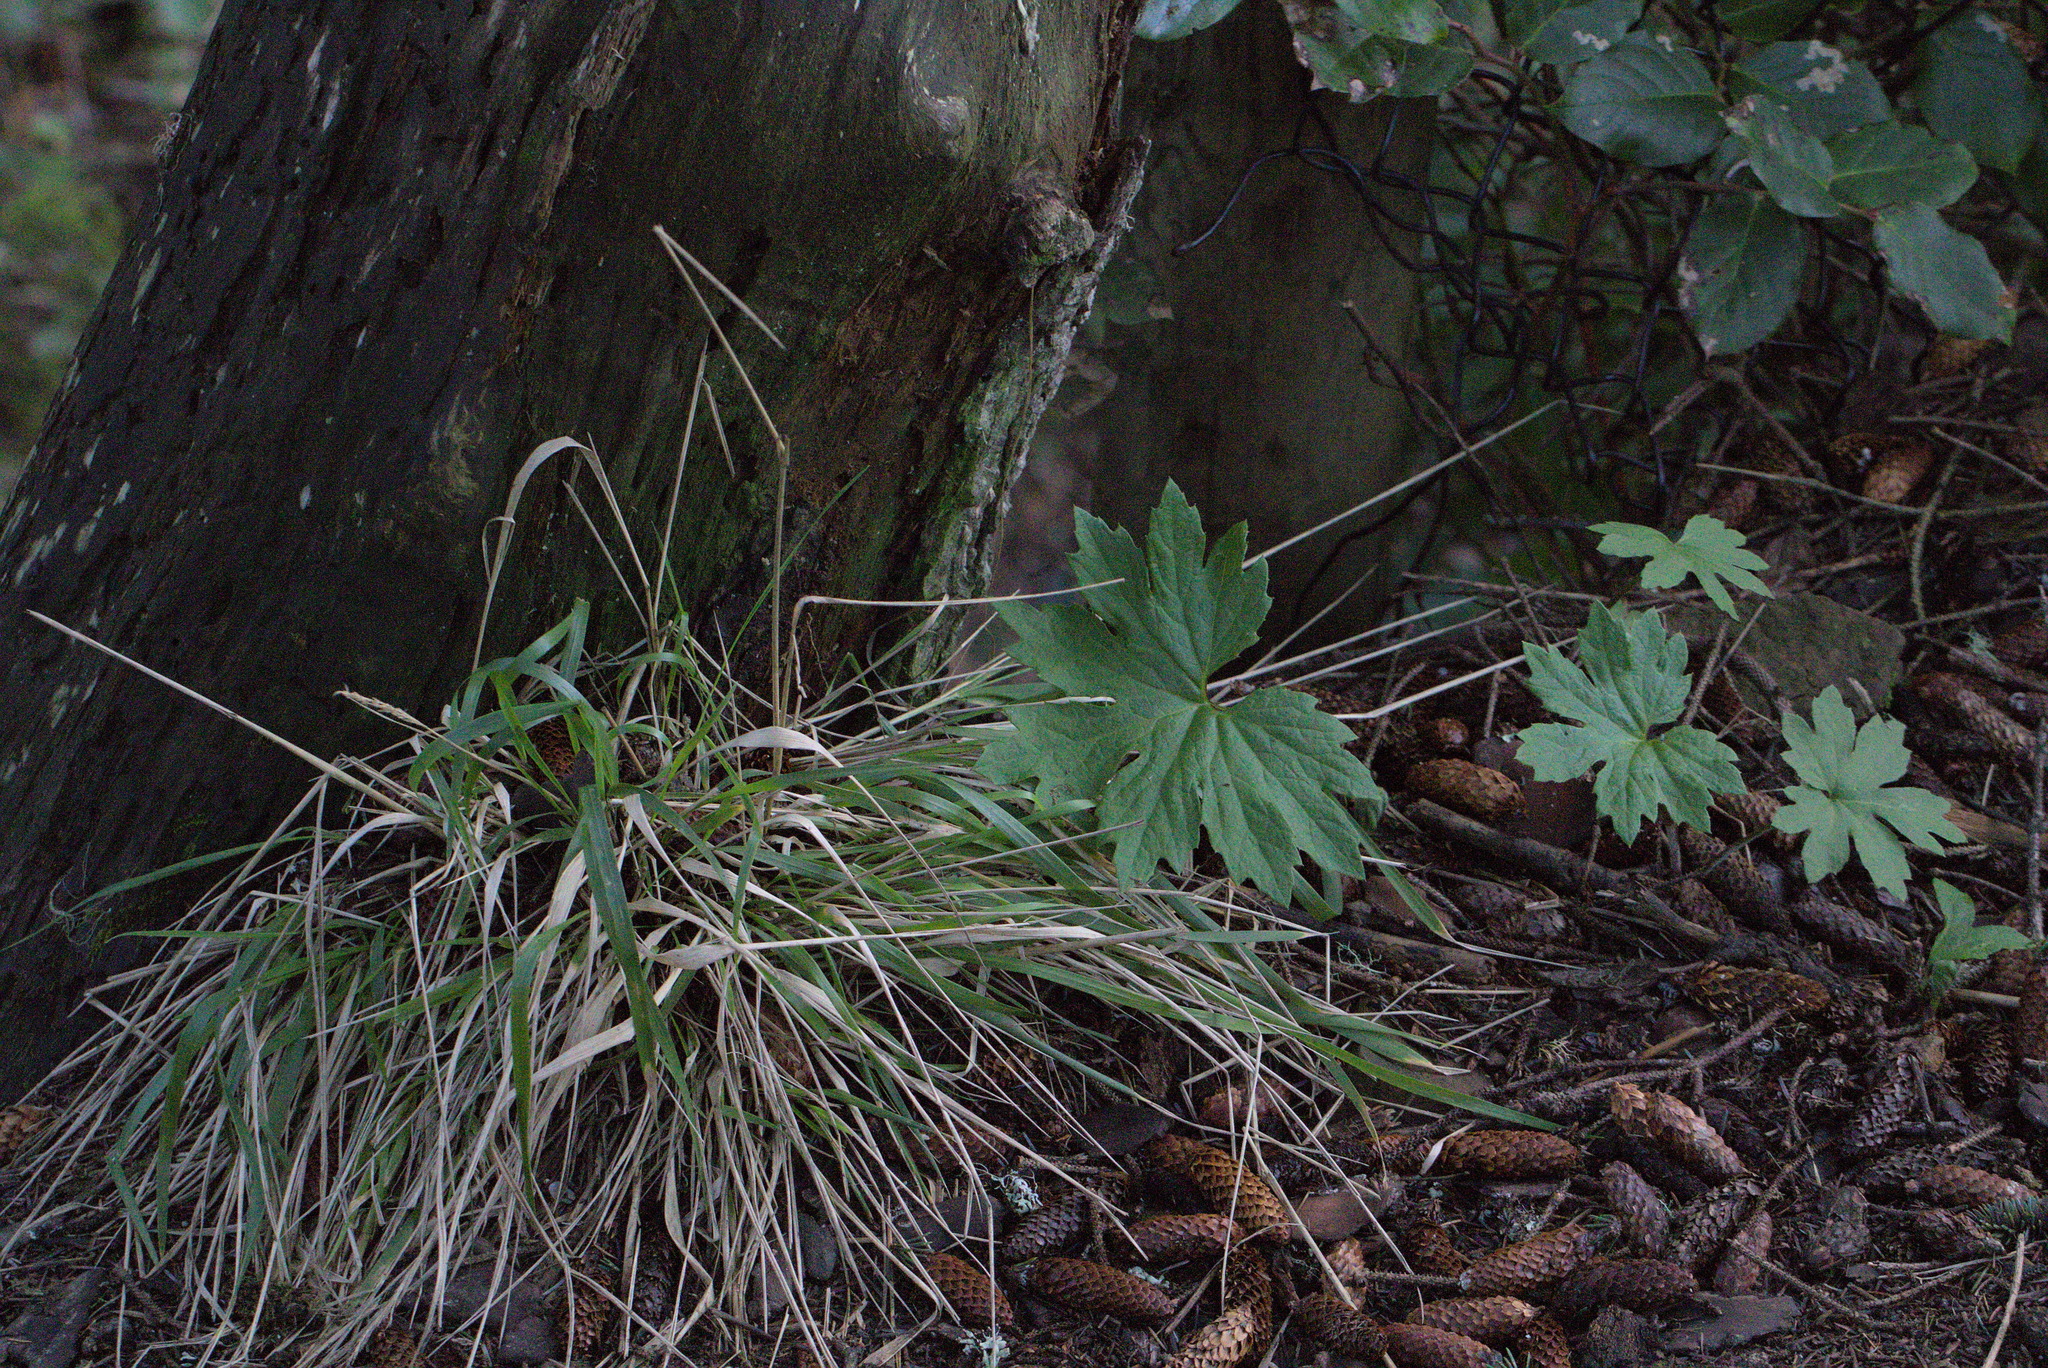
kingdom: Plantae
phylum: Tracheophyta
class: Magnoliopsida
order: Asterales
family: Asteraceae
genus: Petasites
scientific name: Petasites frigidus
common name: Arctic butterbur
